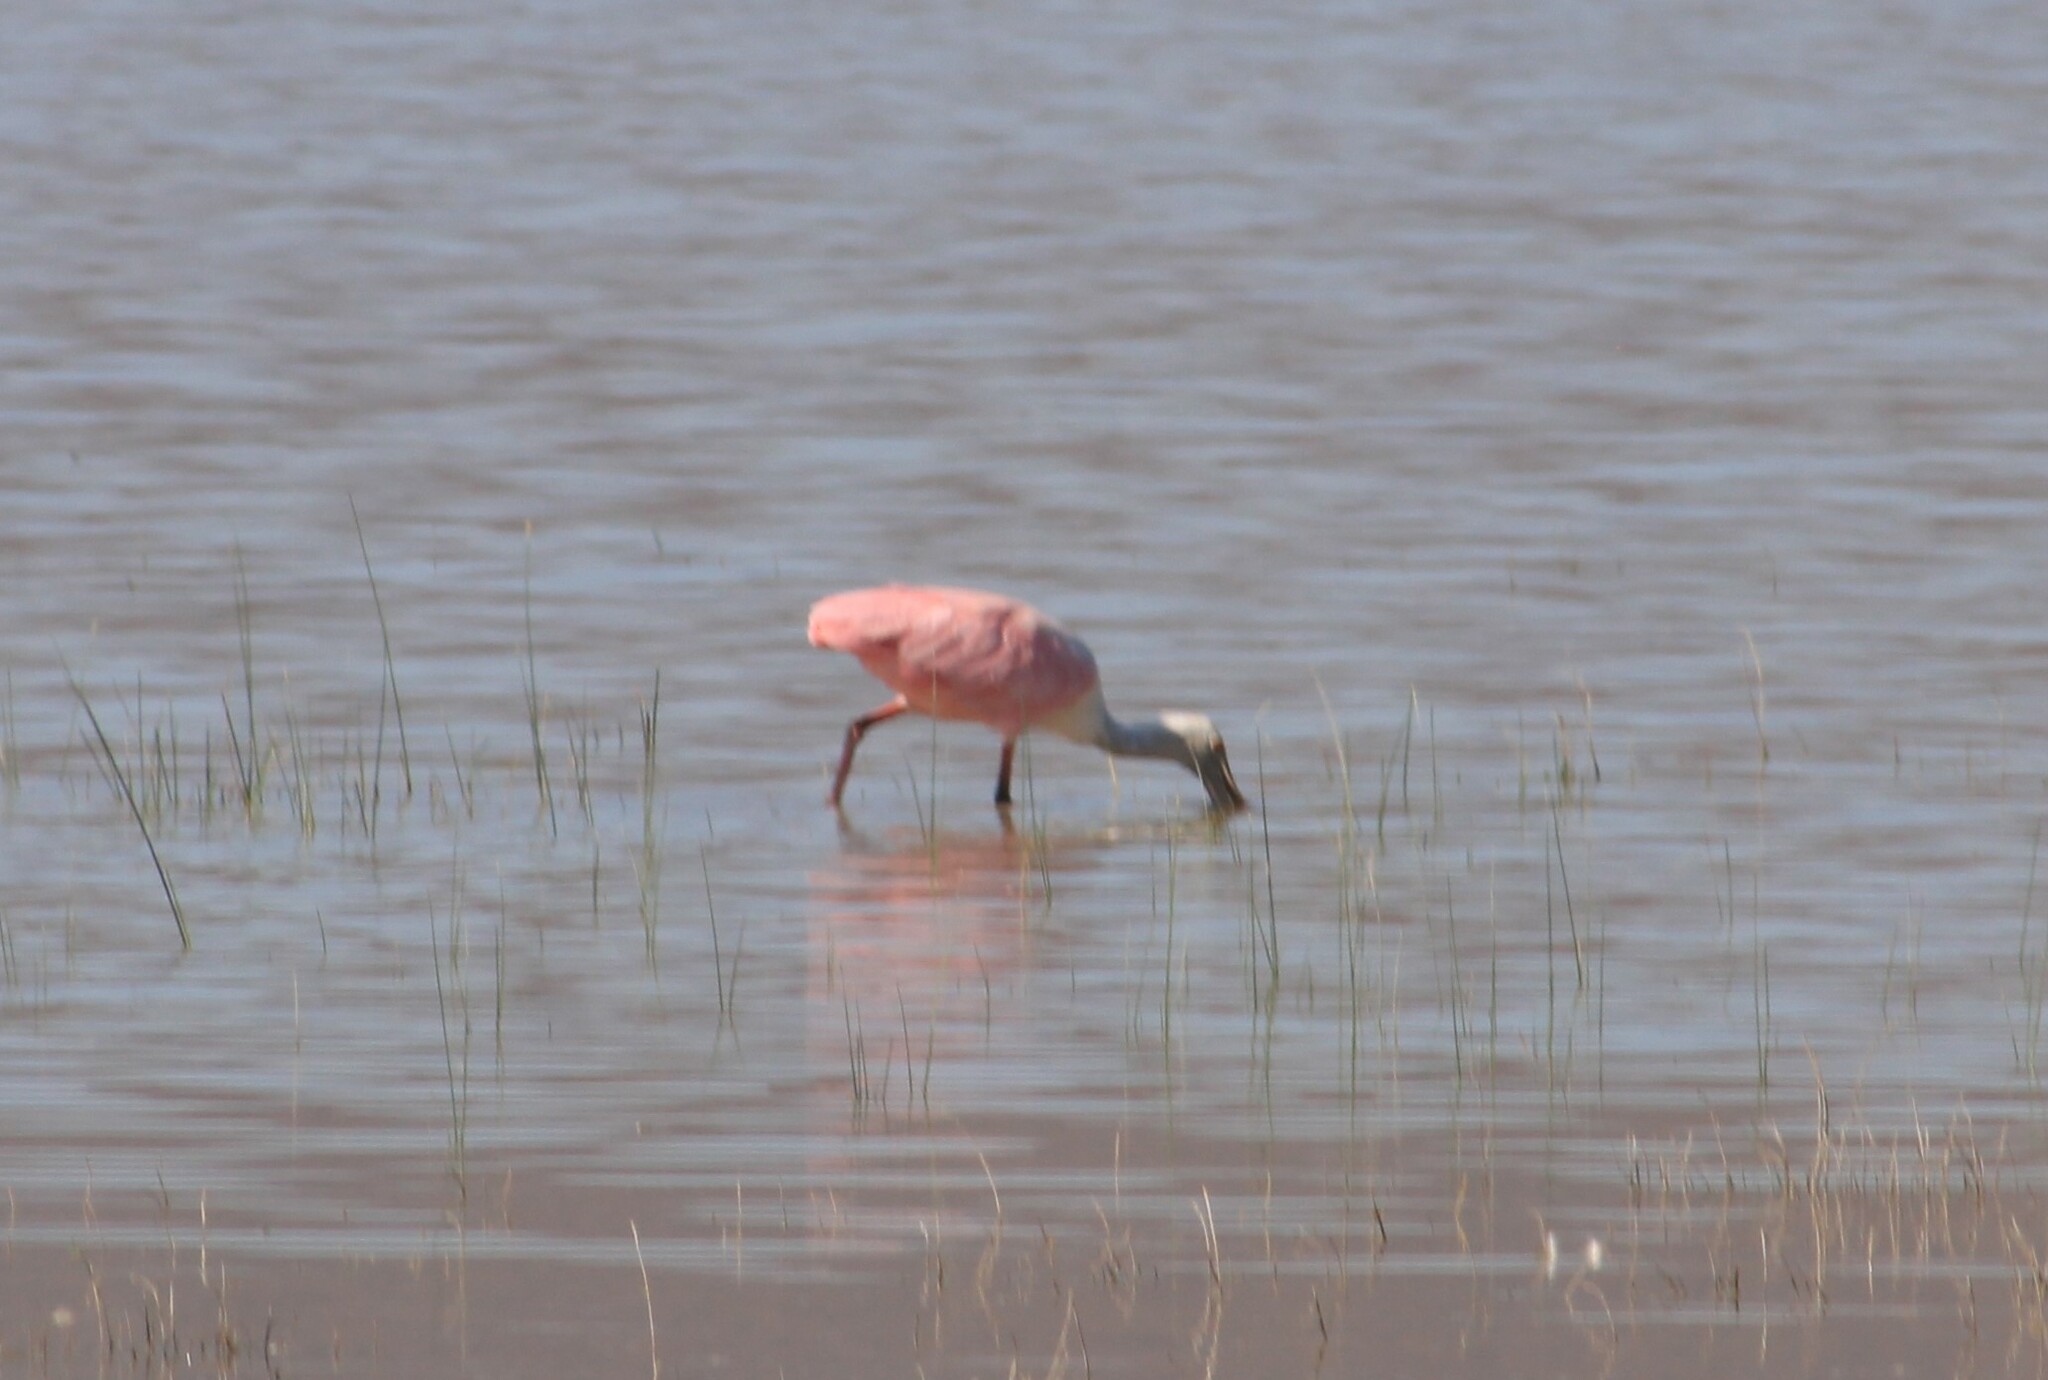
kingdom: Animalia
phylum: Chordata
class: Aves
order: Pelecaniformes
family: Threskiornithidae
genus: Platalea
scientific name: Platalea ajaja
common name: Roseate spoonbill
